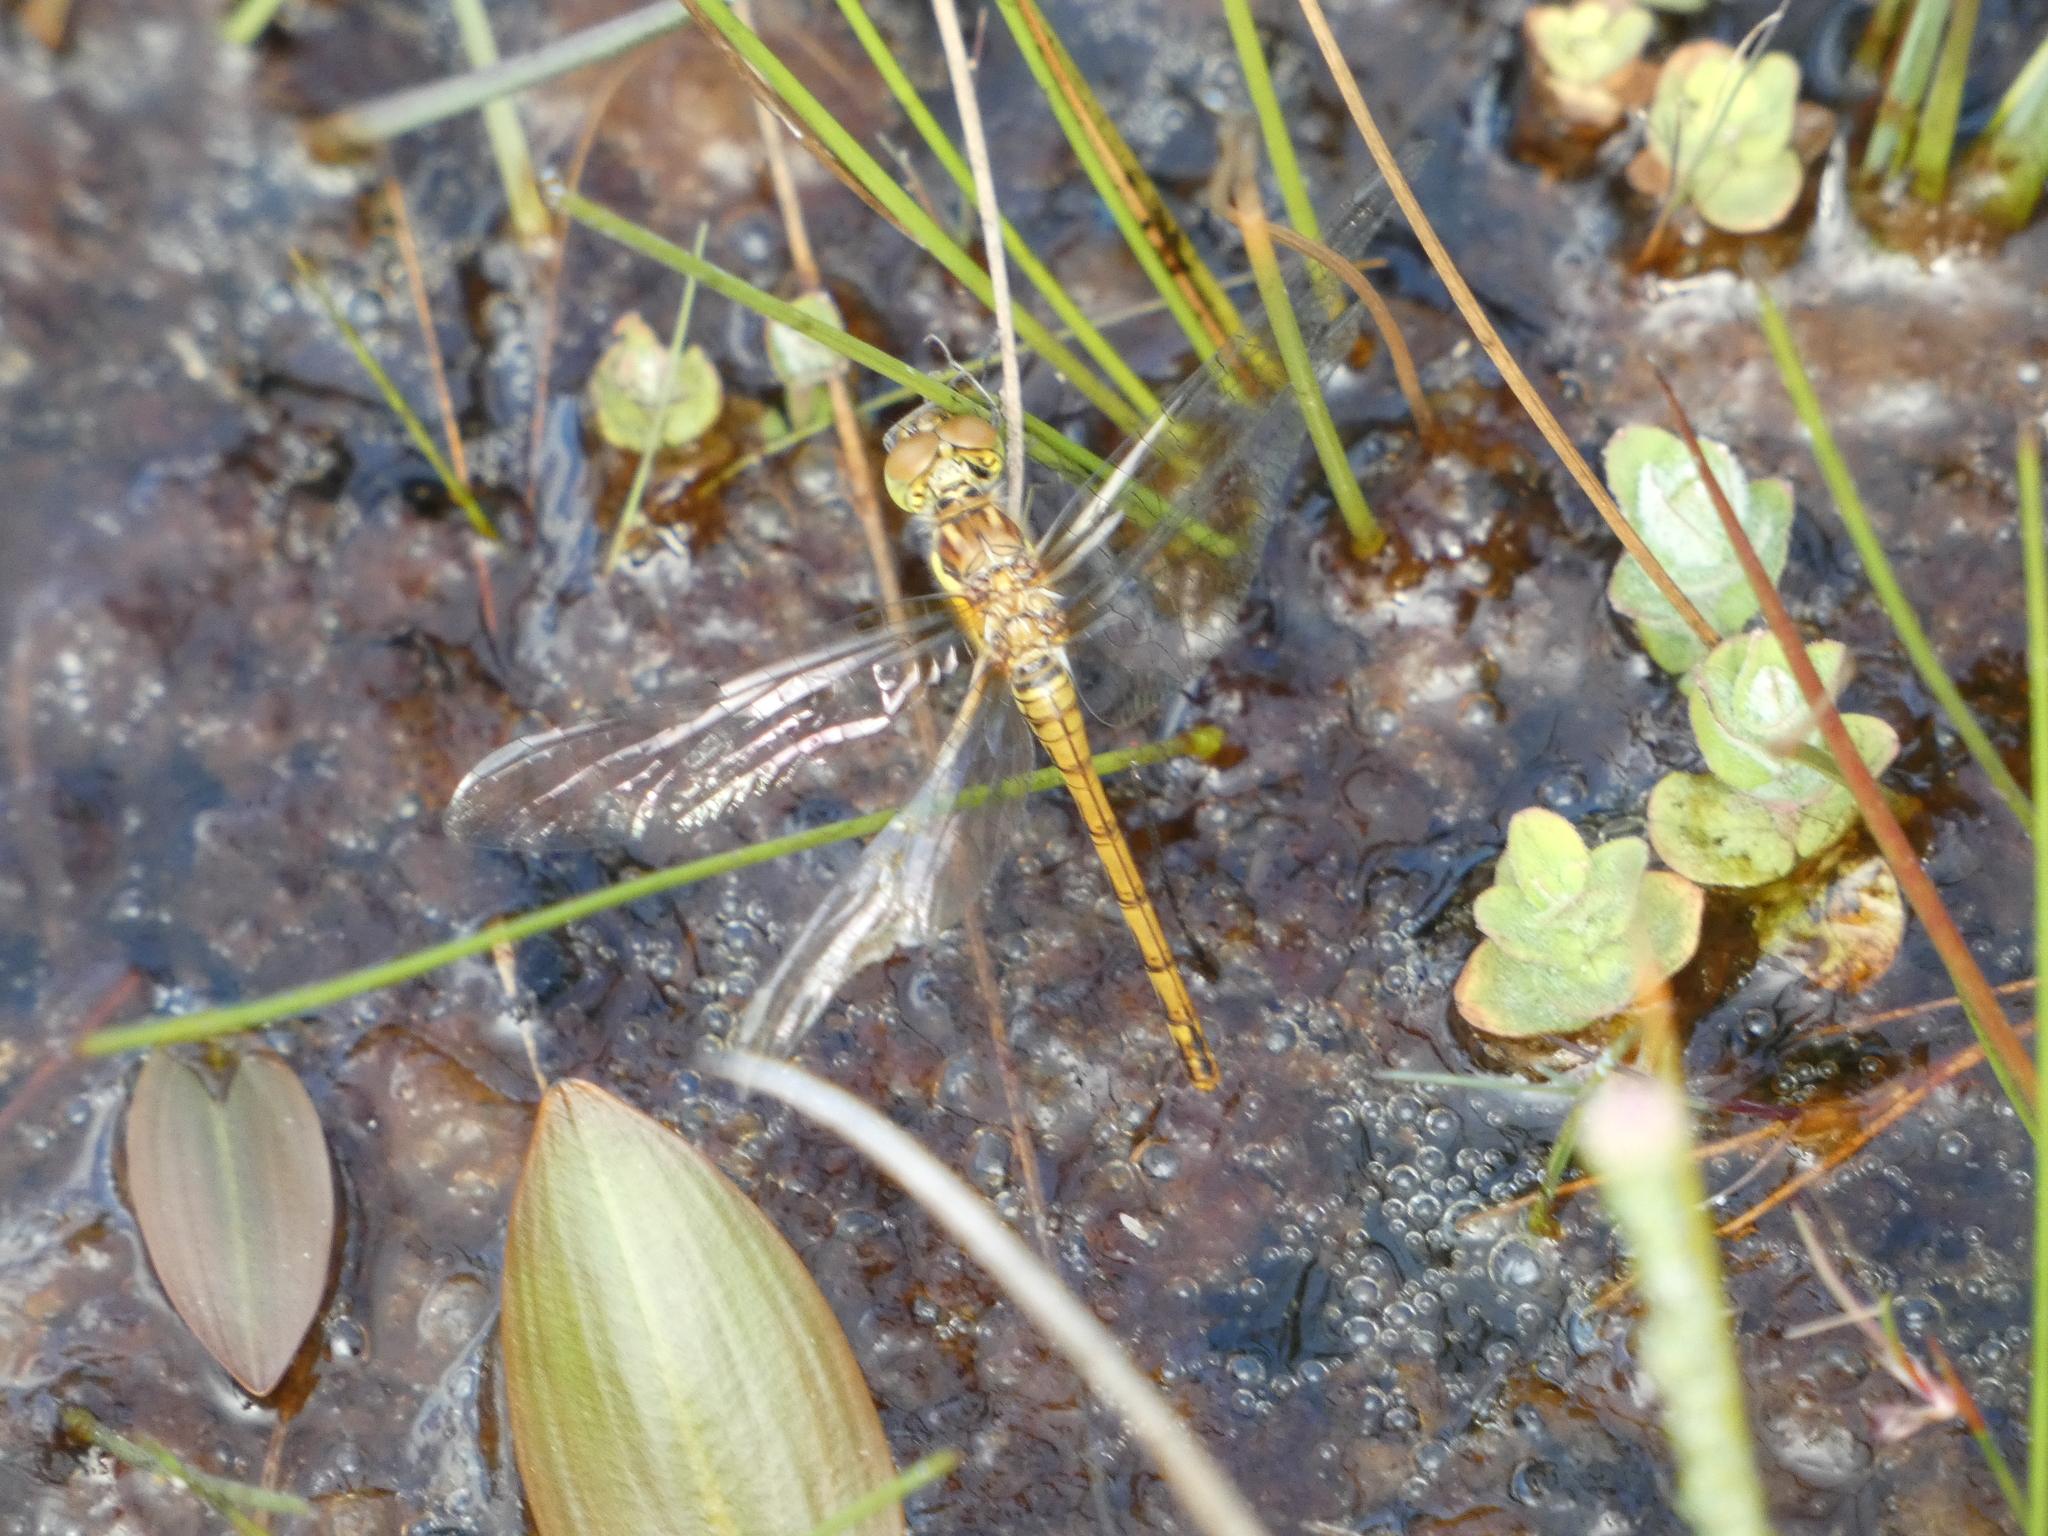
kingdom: Animalia
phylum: Arthropoda
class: Insecta
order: Odonata
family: Libellulidae
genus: Sympetrum
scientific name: Sympetrum striolatum
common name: Common darter
